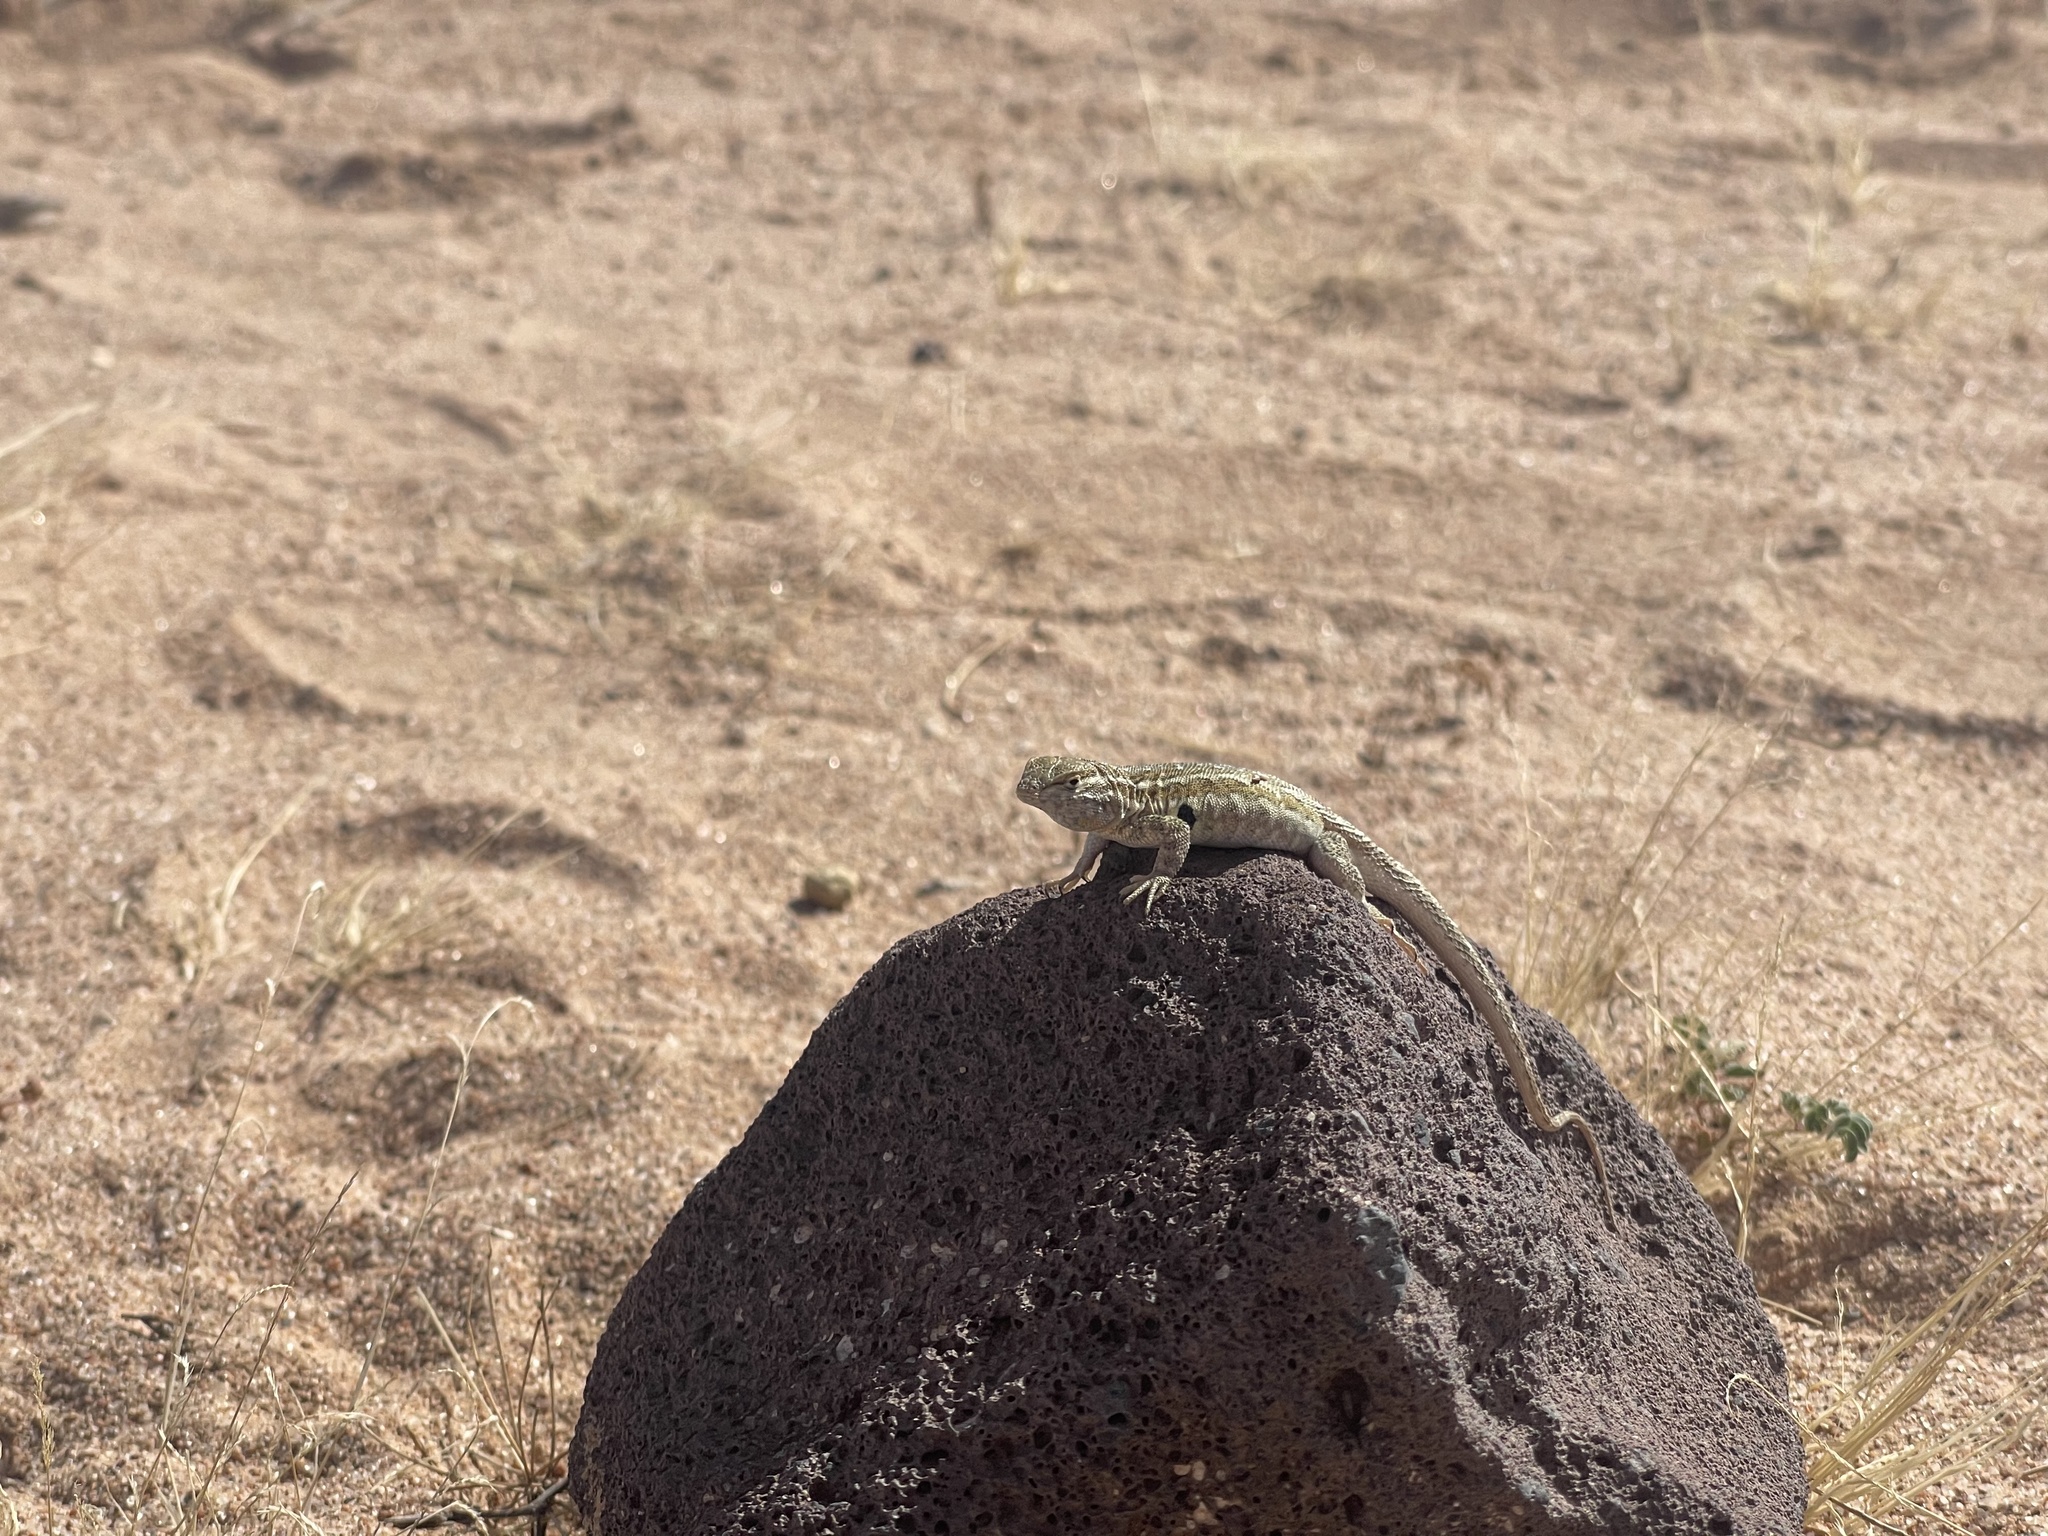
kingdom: Animalia
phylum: Chordata
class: Squamata
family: Phrynosomatidae
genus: Uta
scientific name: Uta stansburiana
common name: Side-blotched lizard
